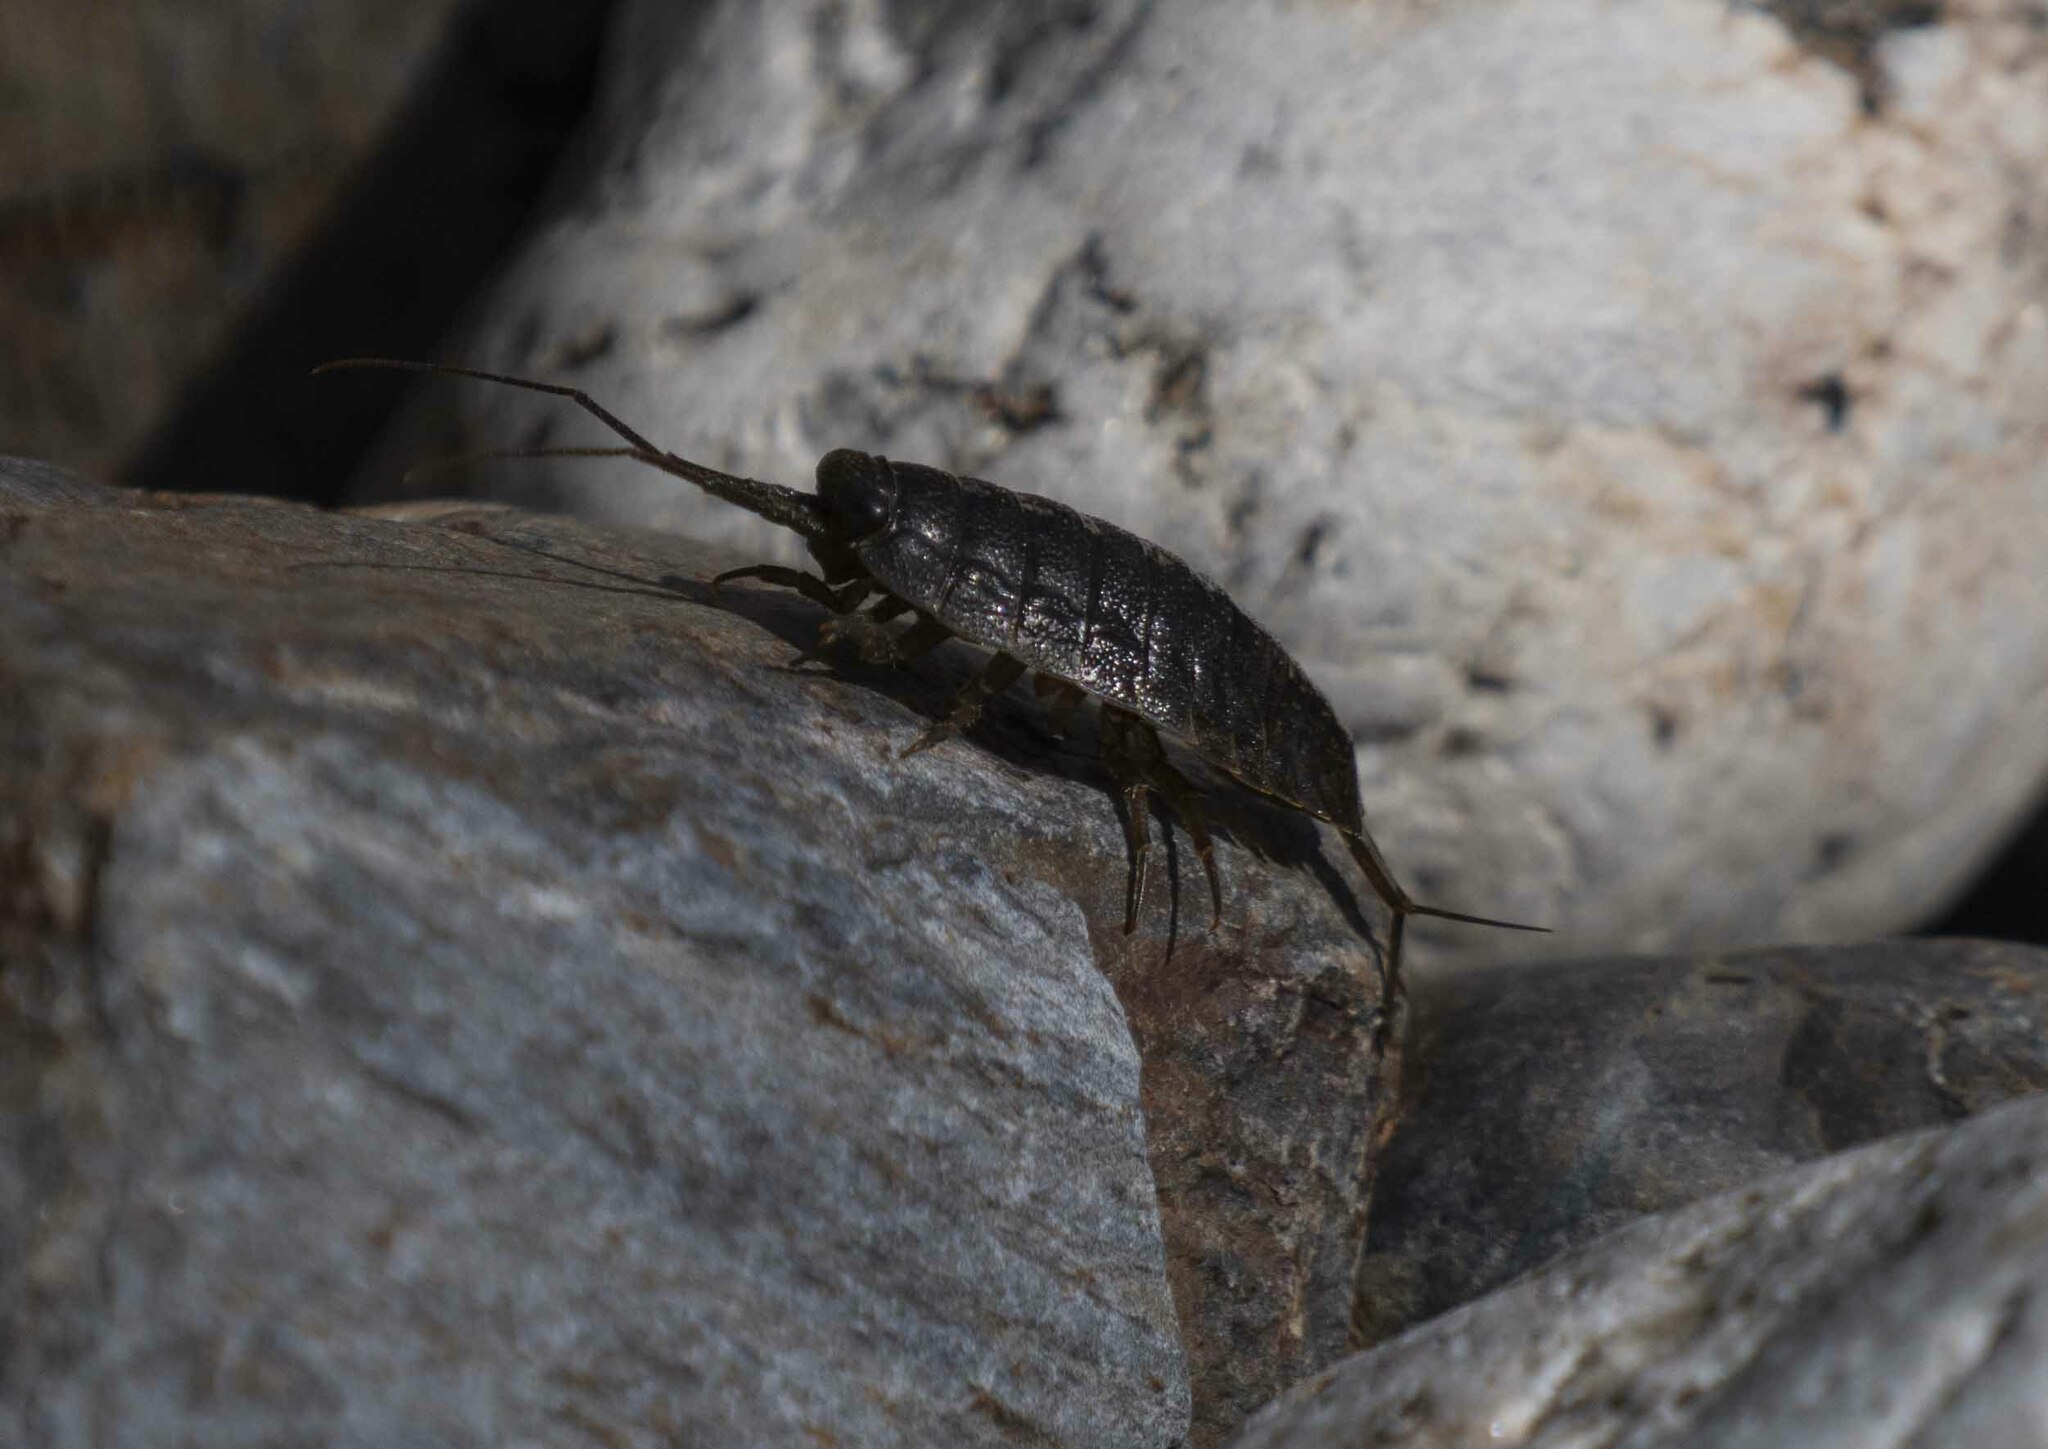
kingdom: Animalia
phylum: Arthropoda
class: Malacostraca
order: Isopoda
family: Ligiidae
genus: Ligia
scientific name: Ligia occidentalis
